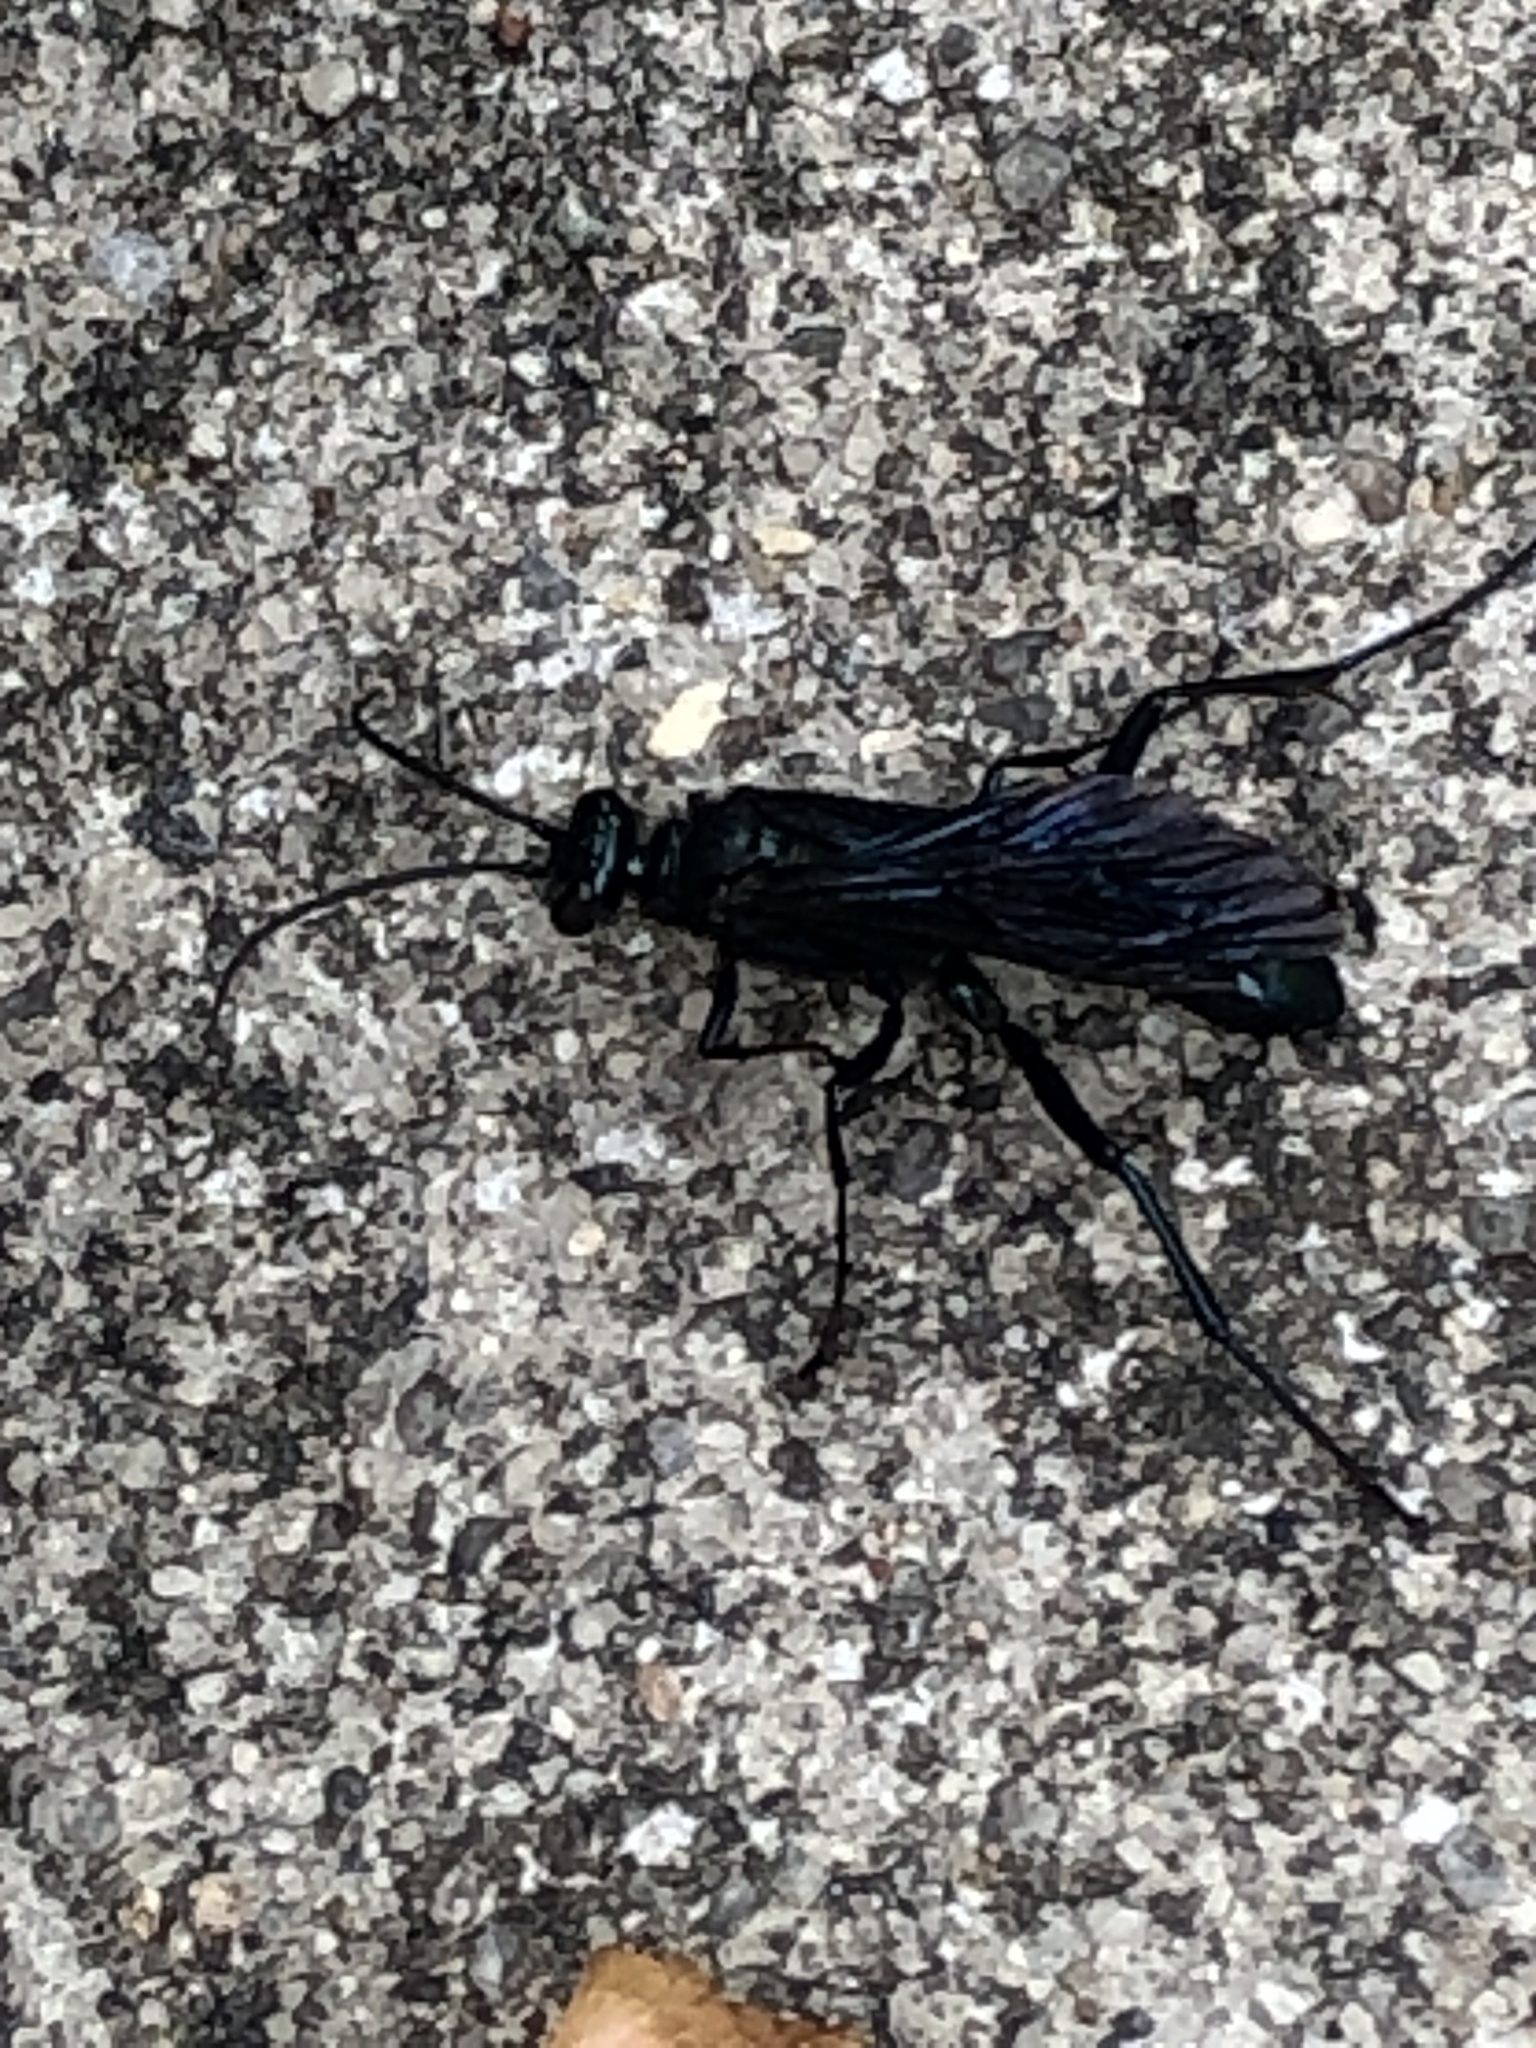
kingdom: Animalia
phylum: Arthropoda
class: Insecta
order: Hymenoptera
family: Sphecidae
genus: Chalybion
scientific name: Chalybion californicum
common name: Mud dauber
